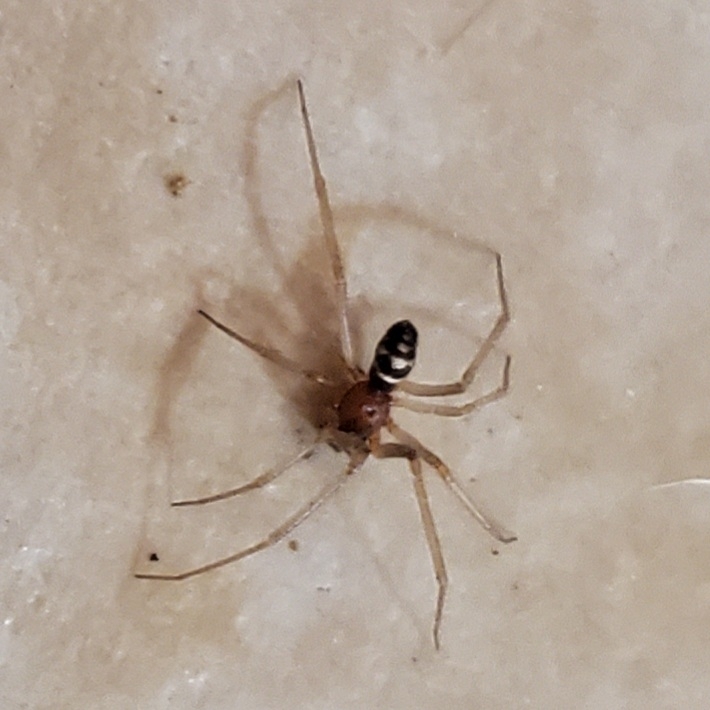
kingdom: Animalia
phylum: Arthropoda
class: Arachnida
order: Araneae
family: Theridiidae
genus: Steatoda
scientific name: Steatoda grossa
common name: False black widow
